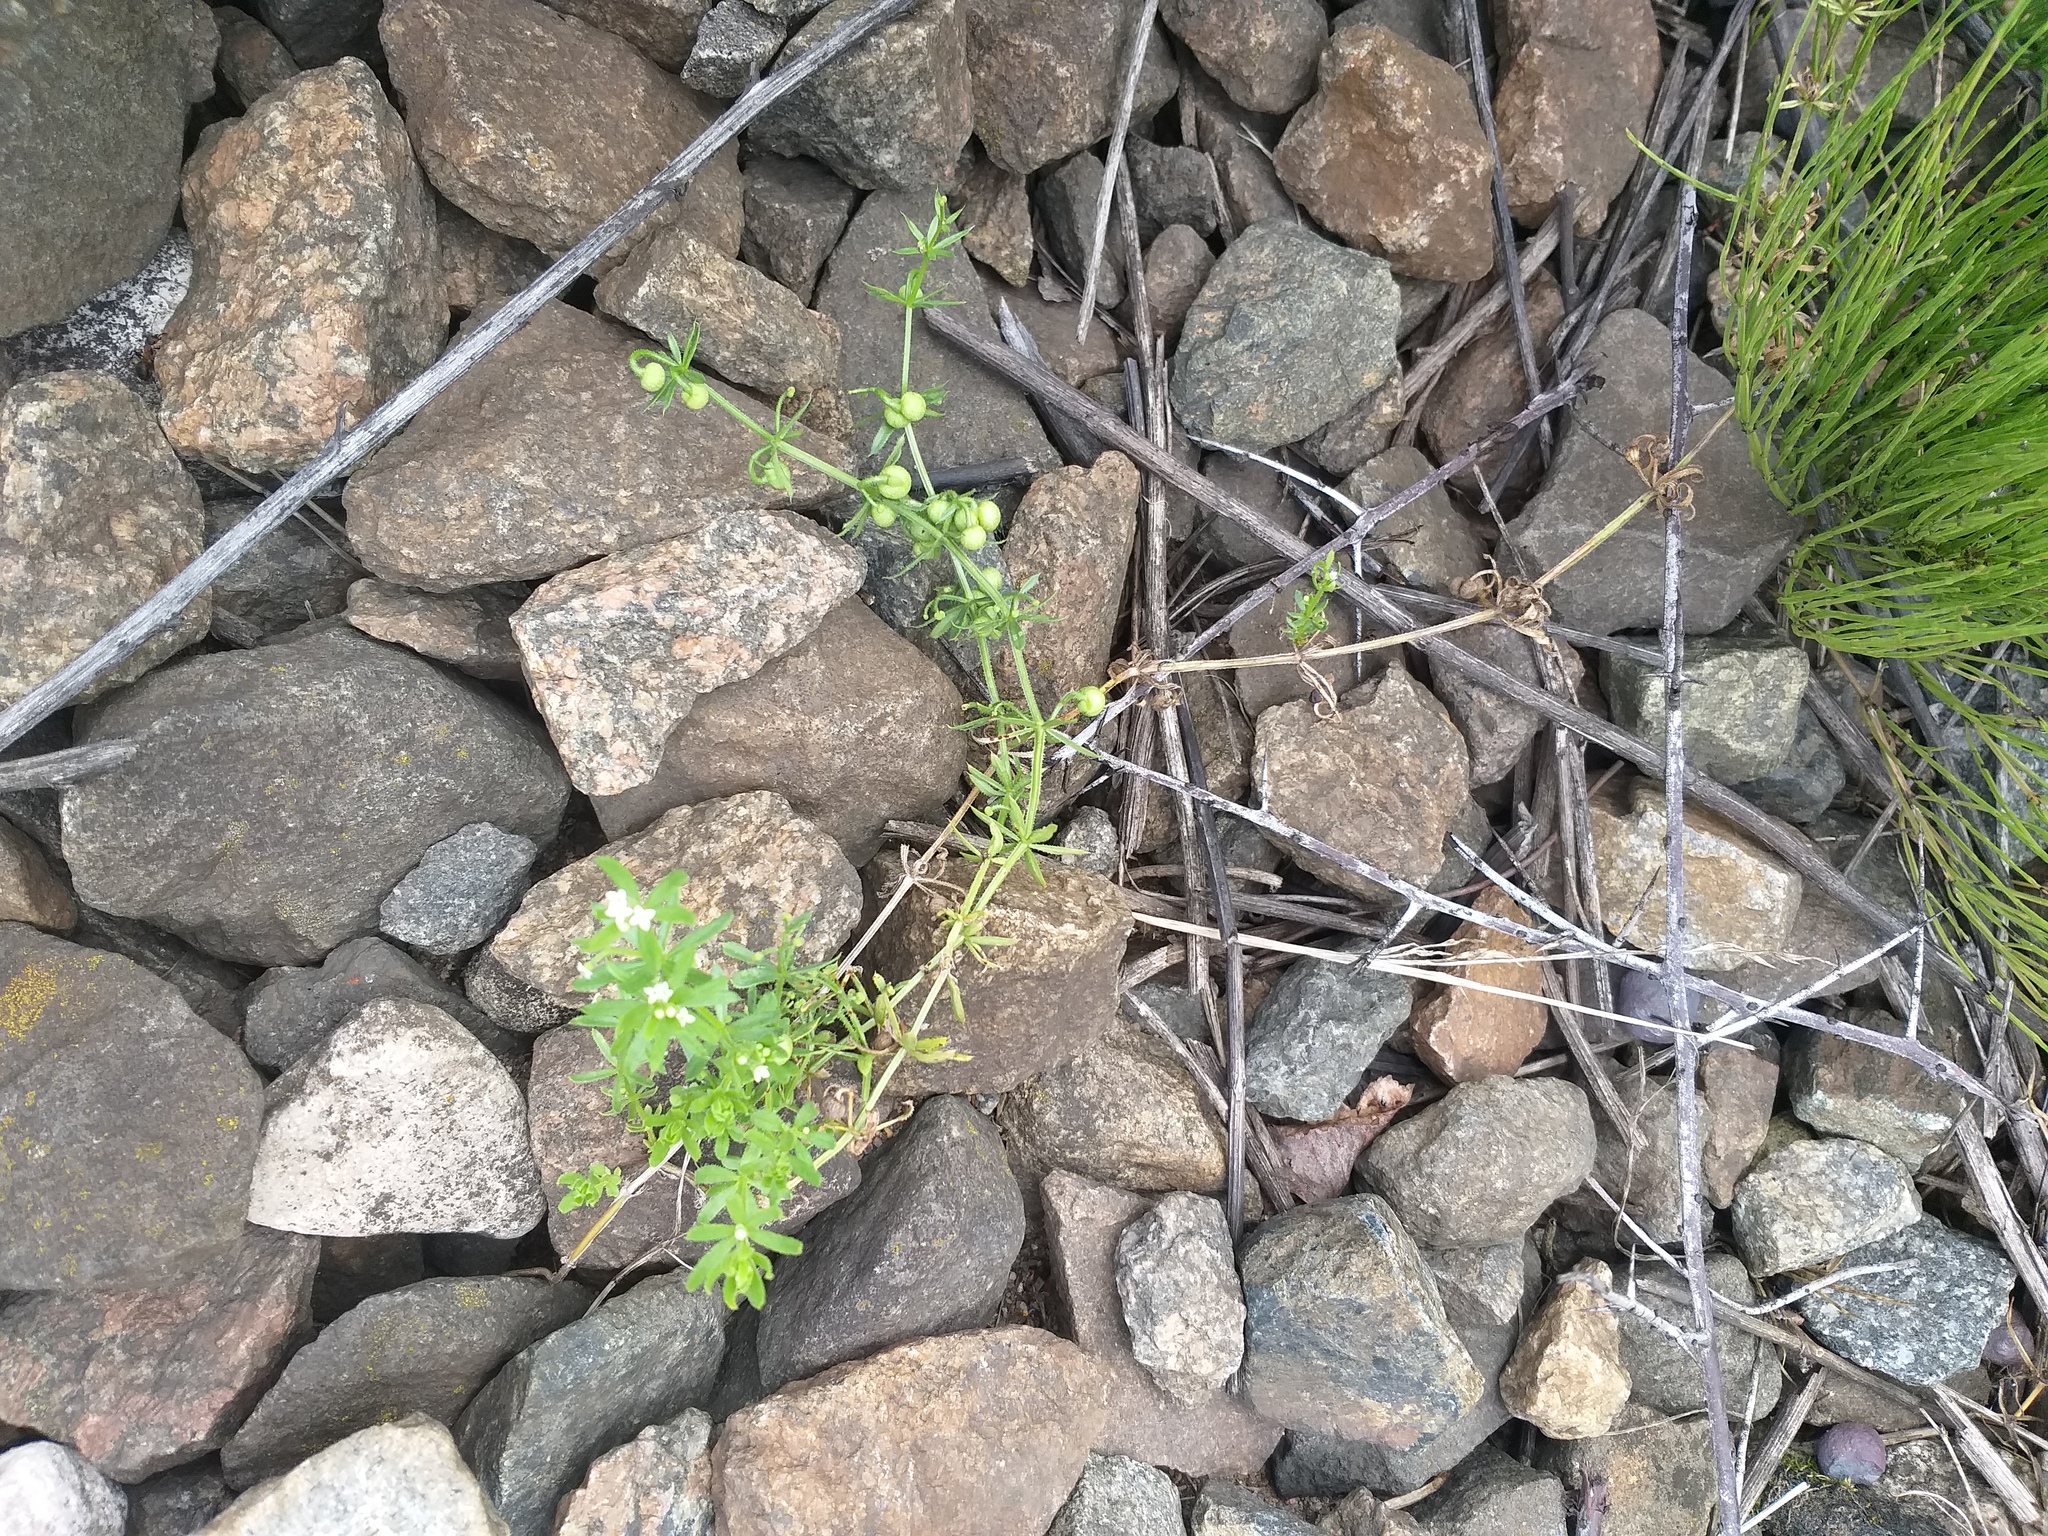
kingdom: Plantae
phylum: Tracheophyta
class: Magnoliopsida
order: Gentianales
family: Rubiaceae
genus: Galium
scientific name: Galium tricornutum
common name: Corn cleavers
